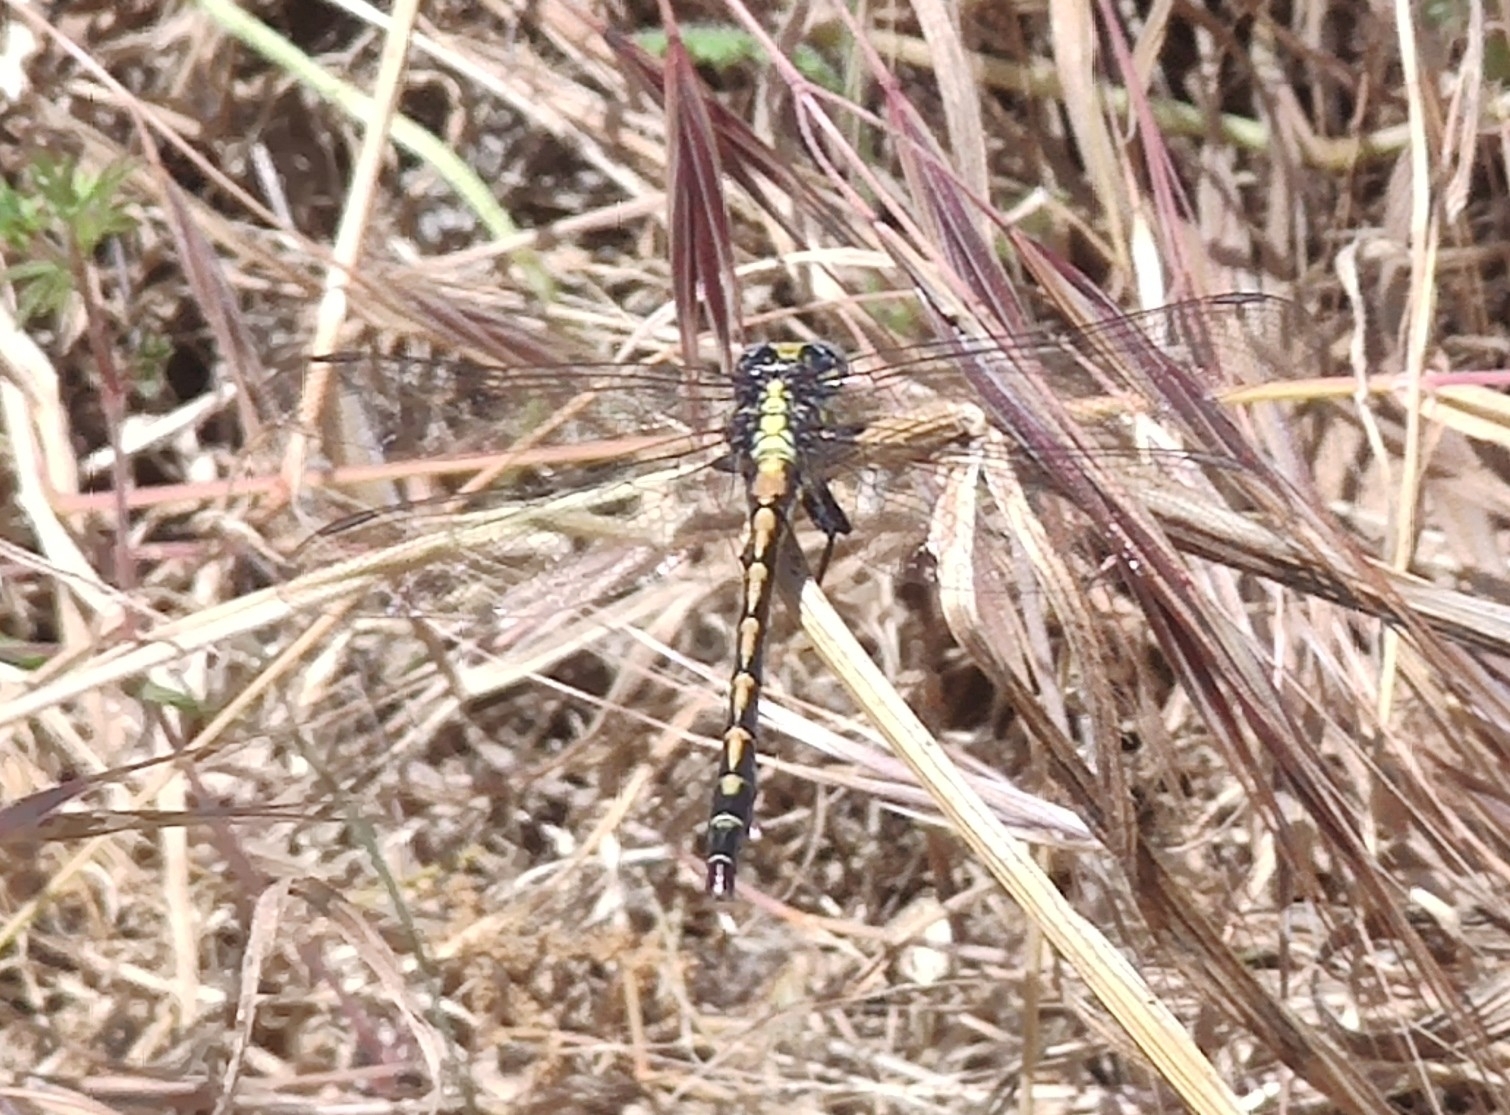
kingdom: Animalia
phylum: Arthropoda
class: Insecta
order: Odonata
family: Gomphidae
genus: Phanogomphus
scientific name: Phanogomphus kurilis
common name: Pacific clubtail
